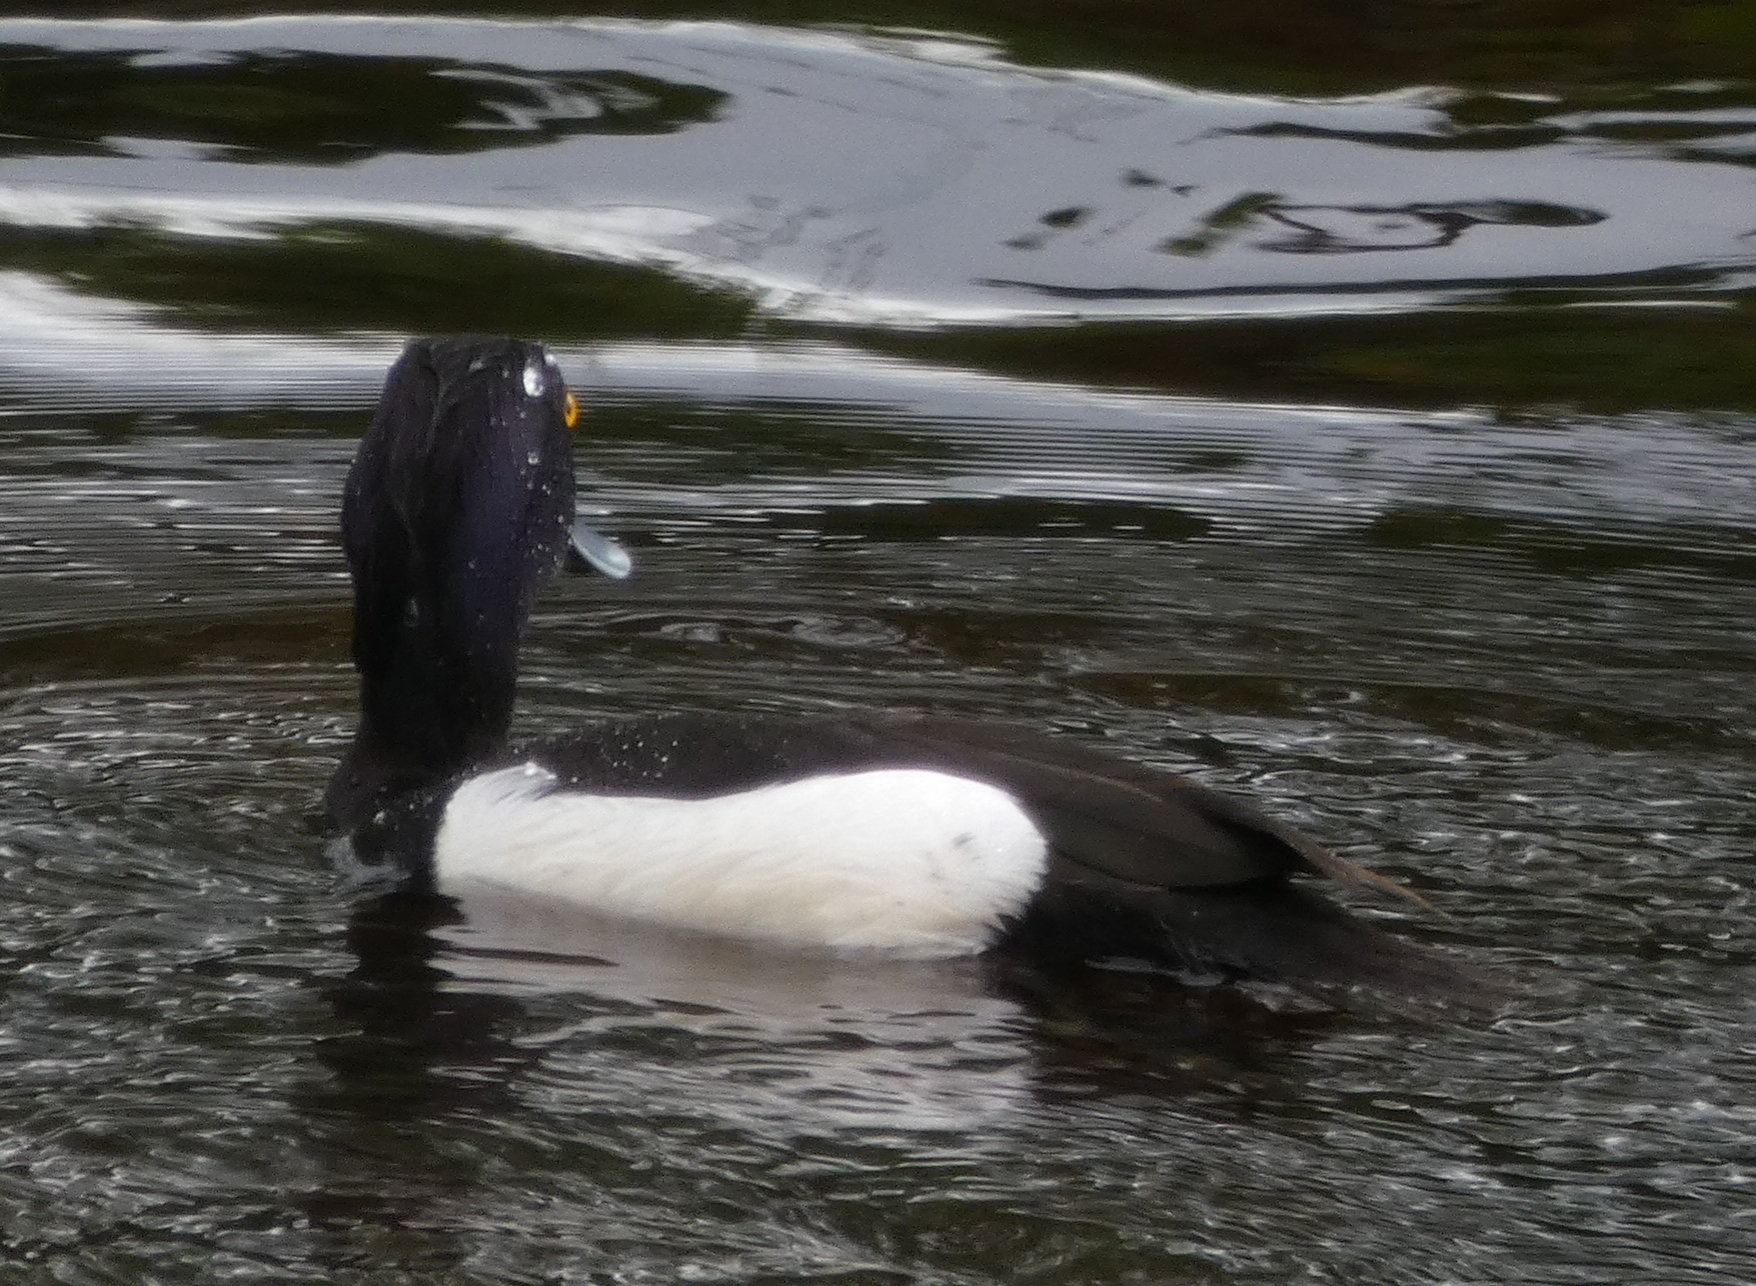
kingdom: Animalia
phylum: Chordata
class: Aves
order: Anseriformes
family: Anatidae
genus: Aythya
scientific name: Aythya fuligula
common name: Tufted duck
